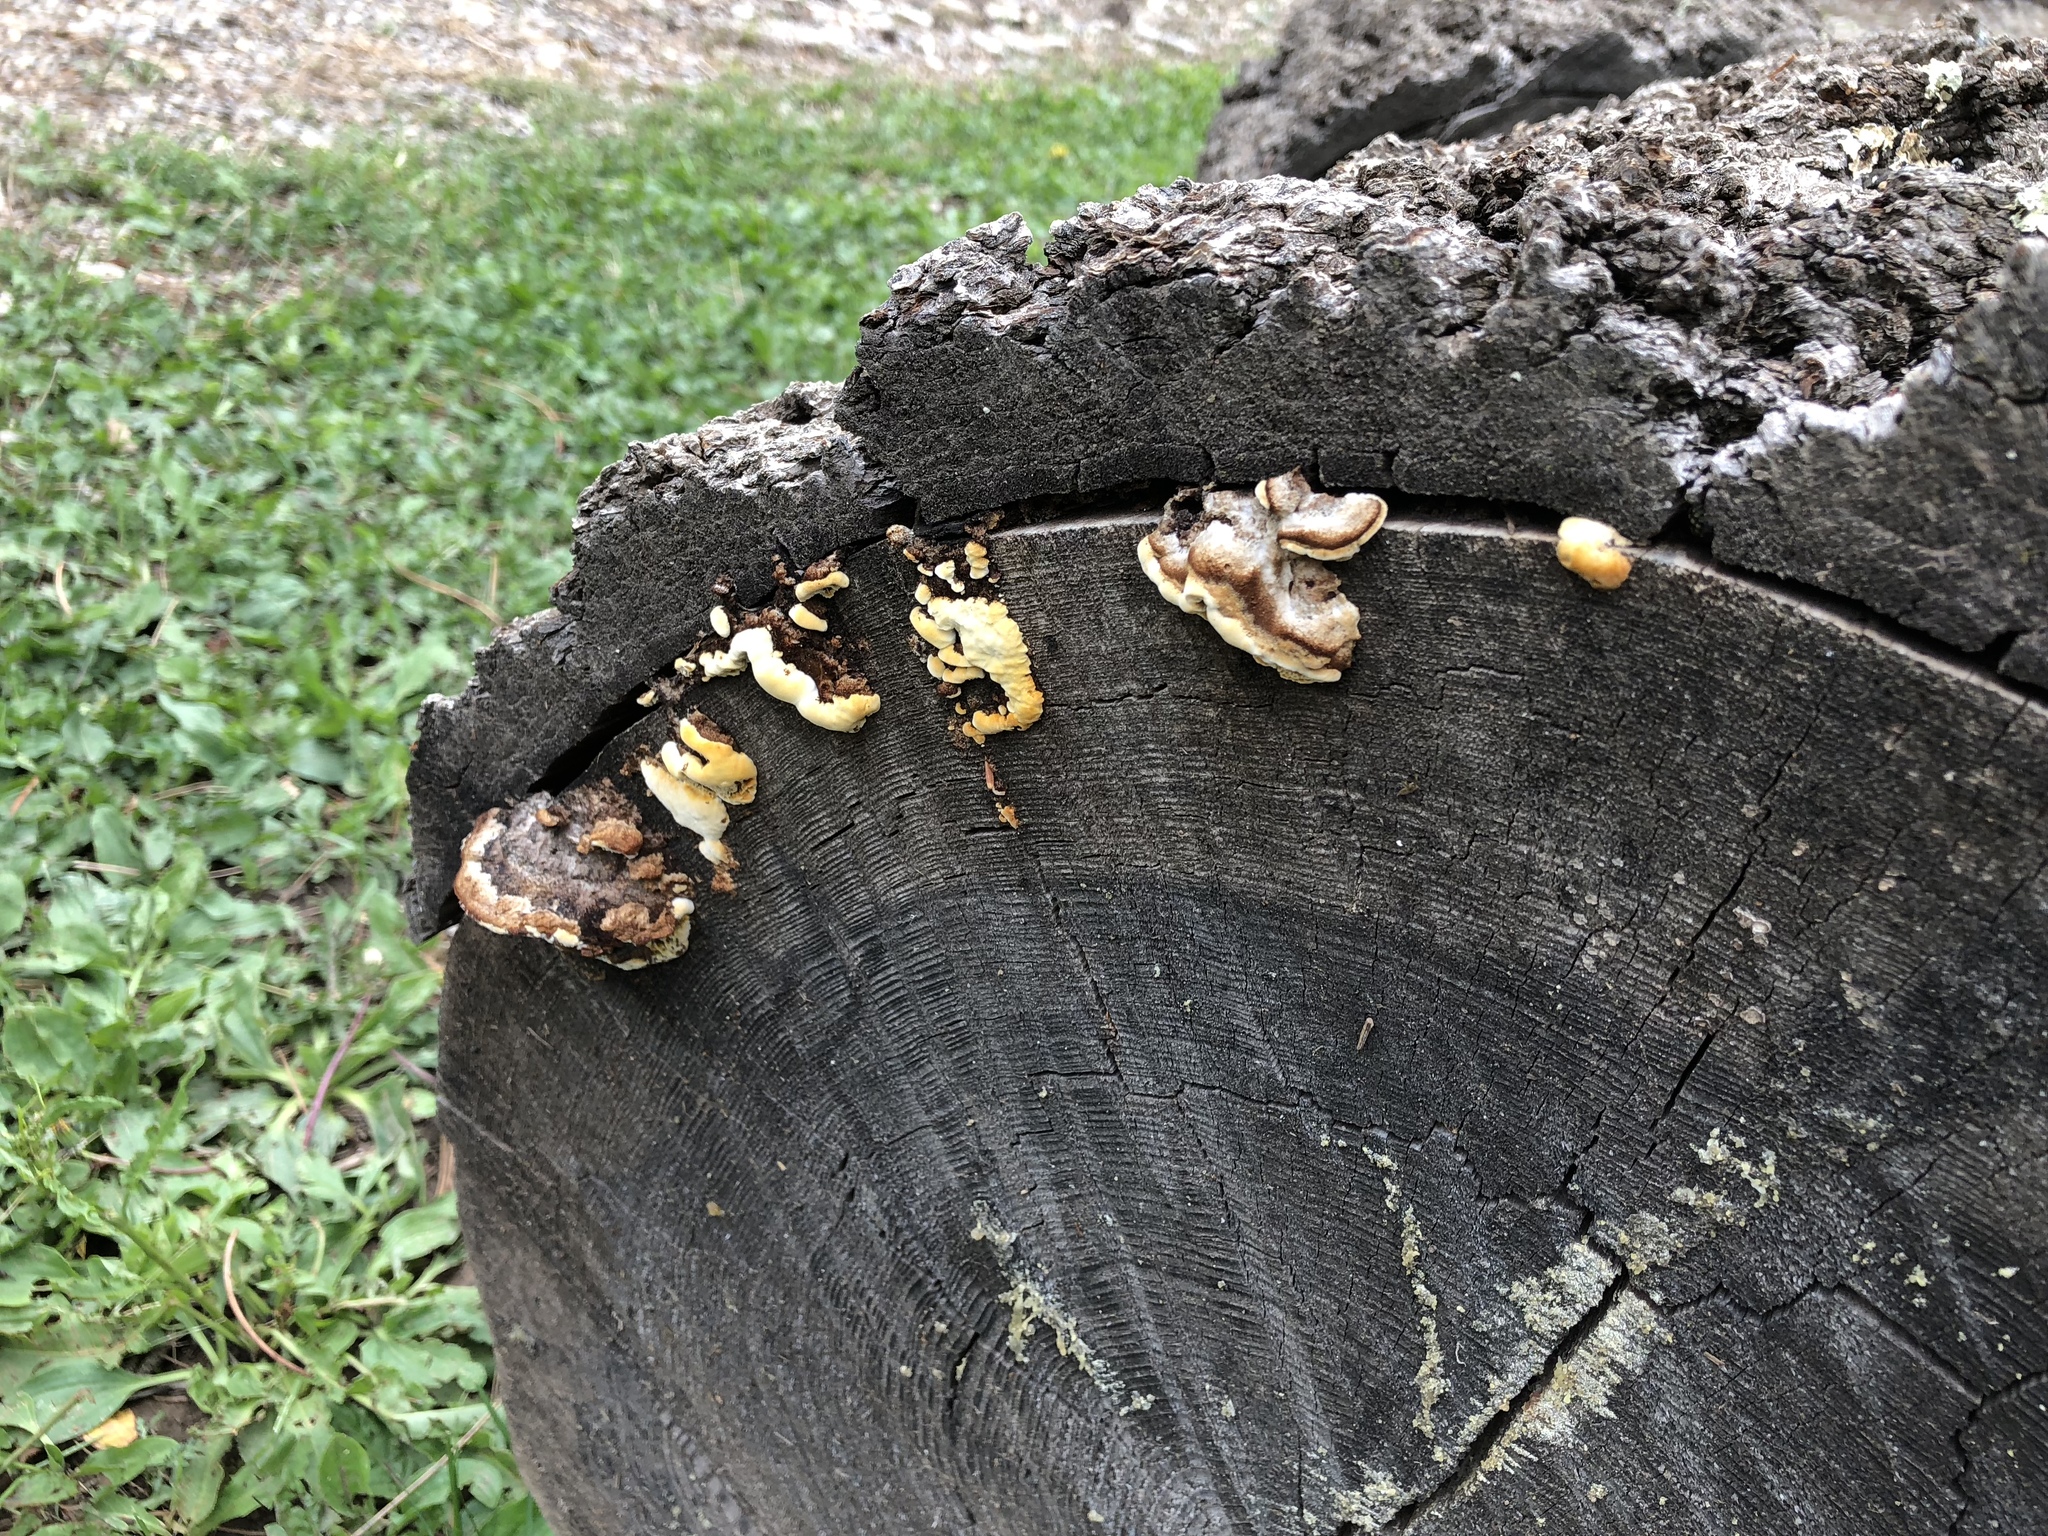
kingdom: Fungi
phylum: Basidiomycota
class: Agaricomycetes
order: Gloeophyllales
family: Gloeophyllaceae
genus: Gloeophyllum
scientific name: Gloeophyllum sepiarium
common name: Conifer mazegill
